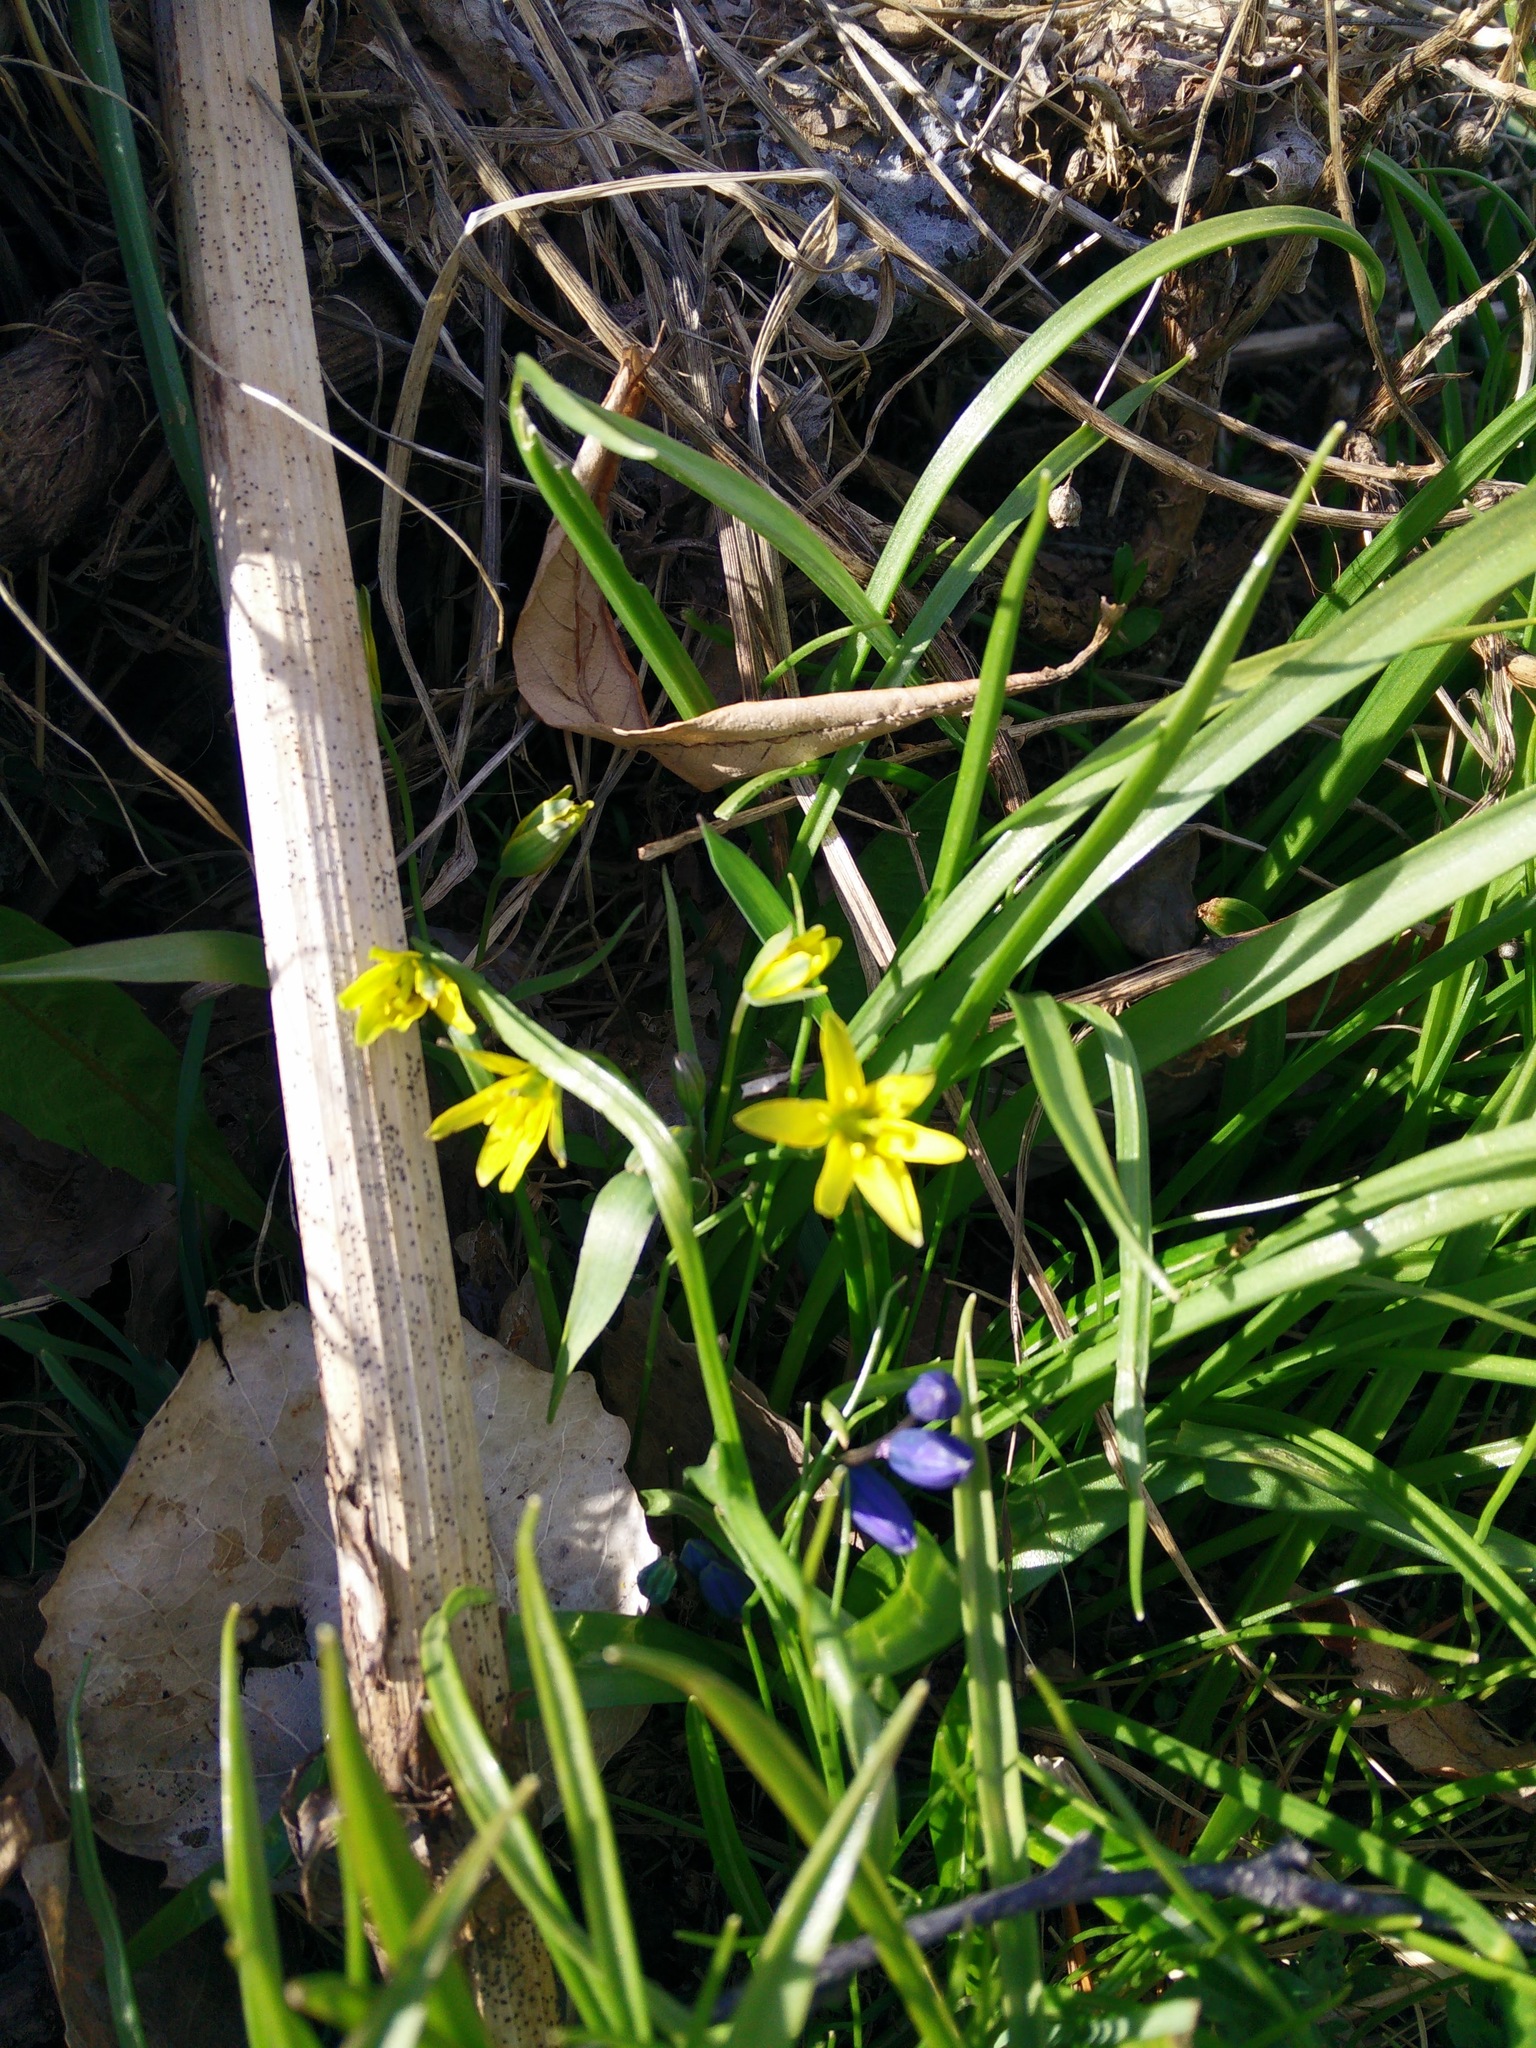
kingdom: Plantae
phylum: Tracheophyta
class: Liliopsida
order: Liliales
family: Liliaceae
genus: Gagea
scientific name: Gagea lutea
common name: Yellow star-of-bethlehem
